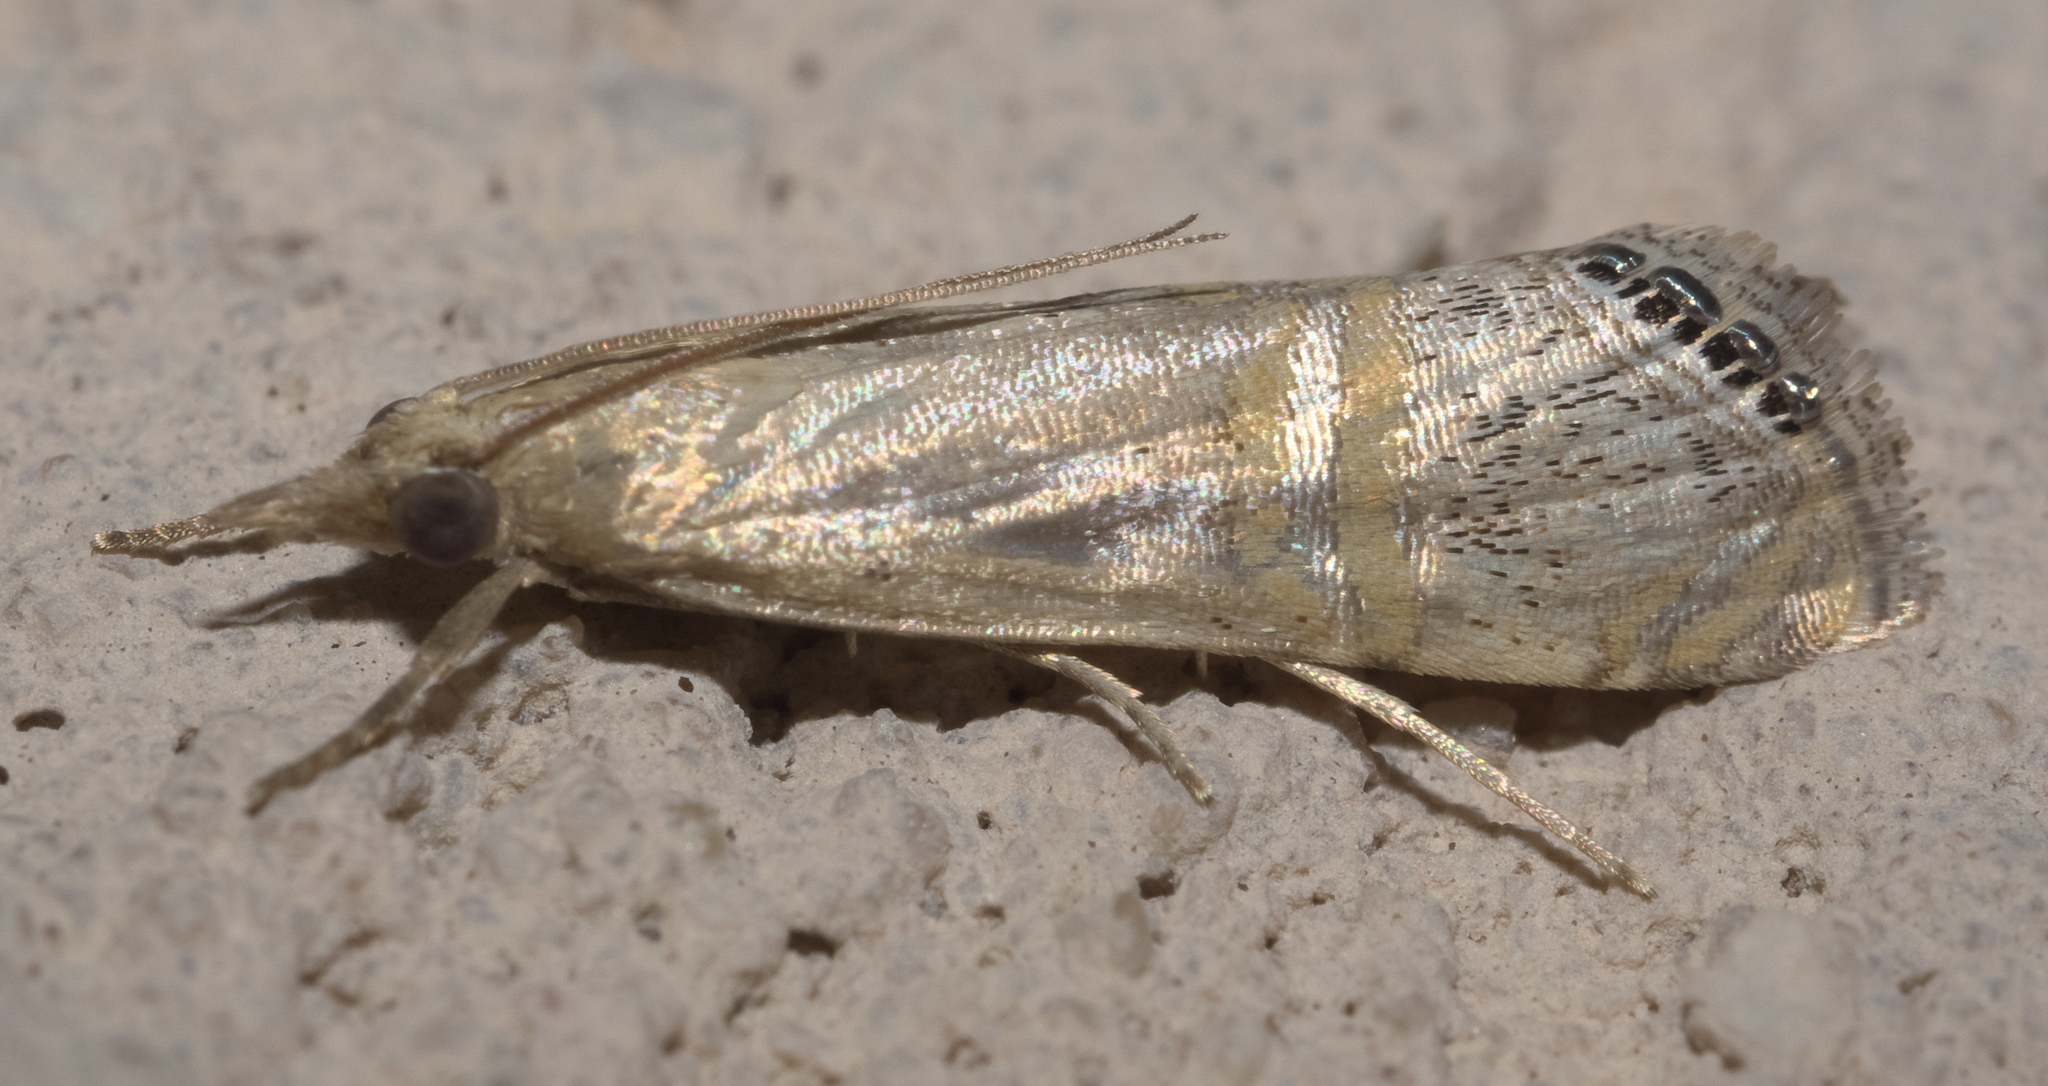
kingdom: Animalia
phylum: Arthropoda
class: Insecta
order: Lepidoptera
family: Crambidae
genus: Euchromius
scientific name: Euchromius ocellea
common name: Necklace veneer moth
